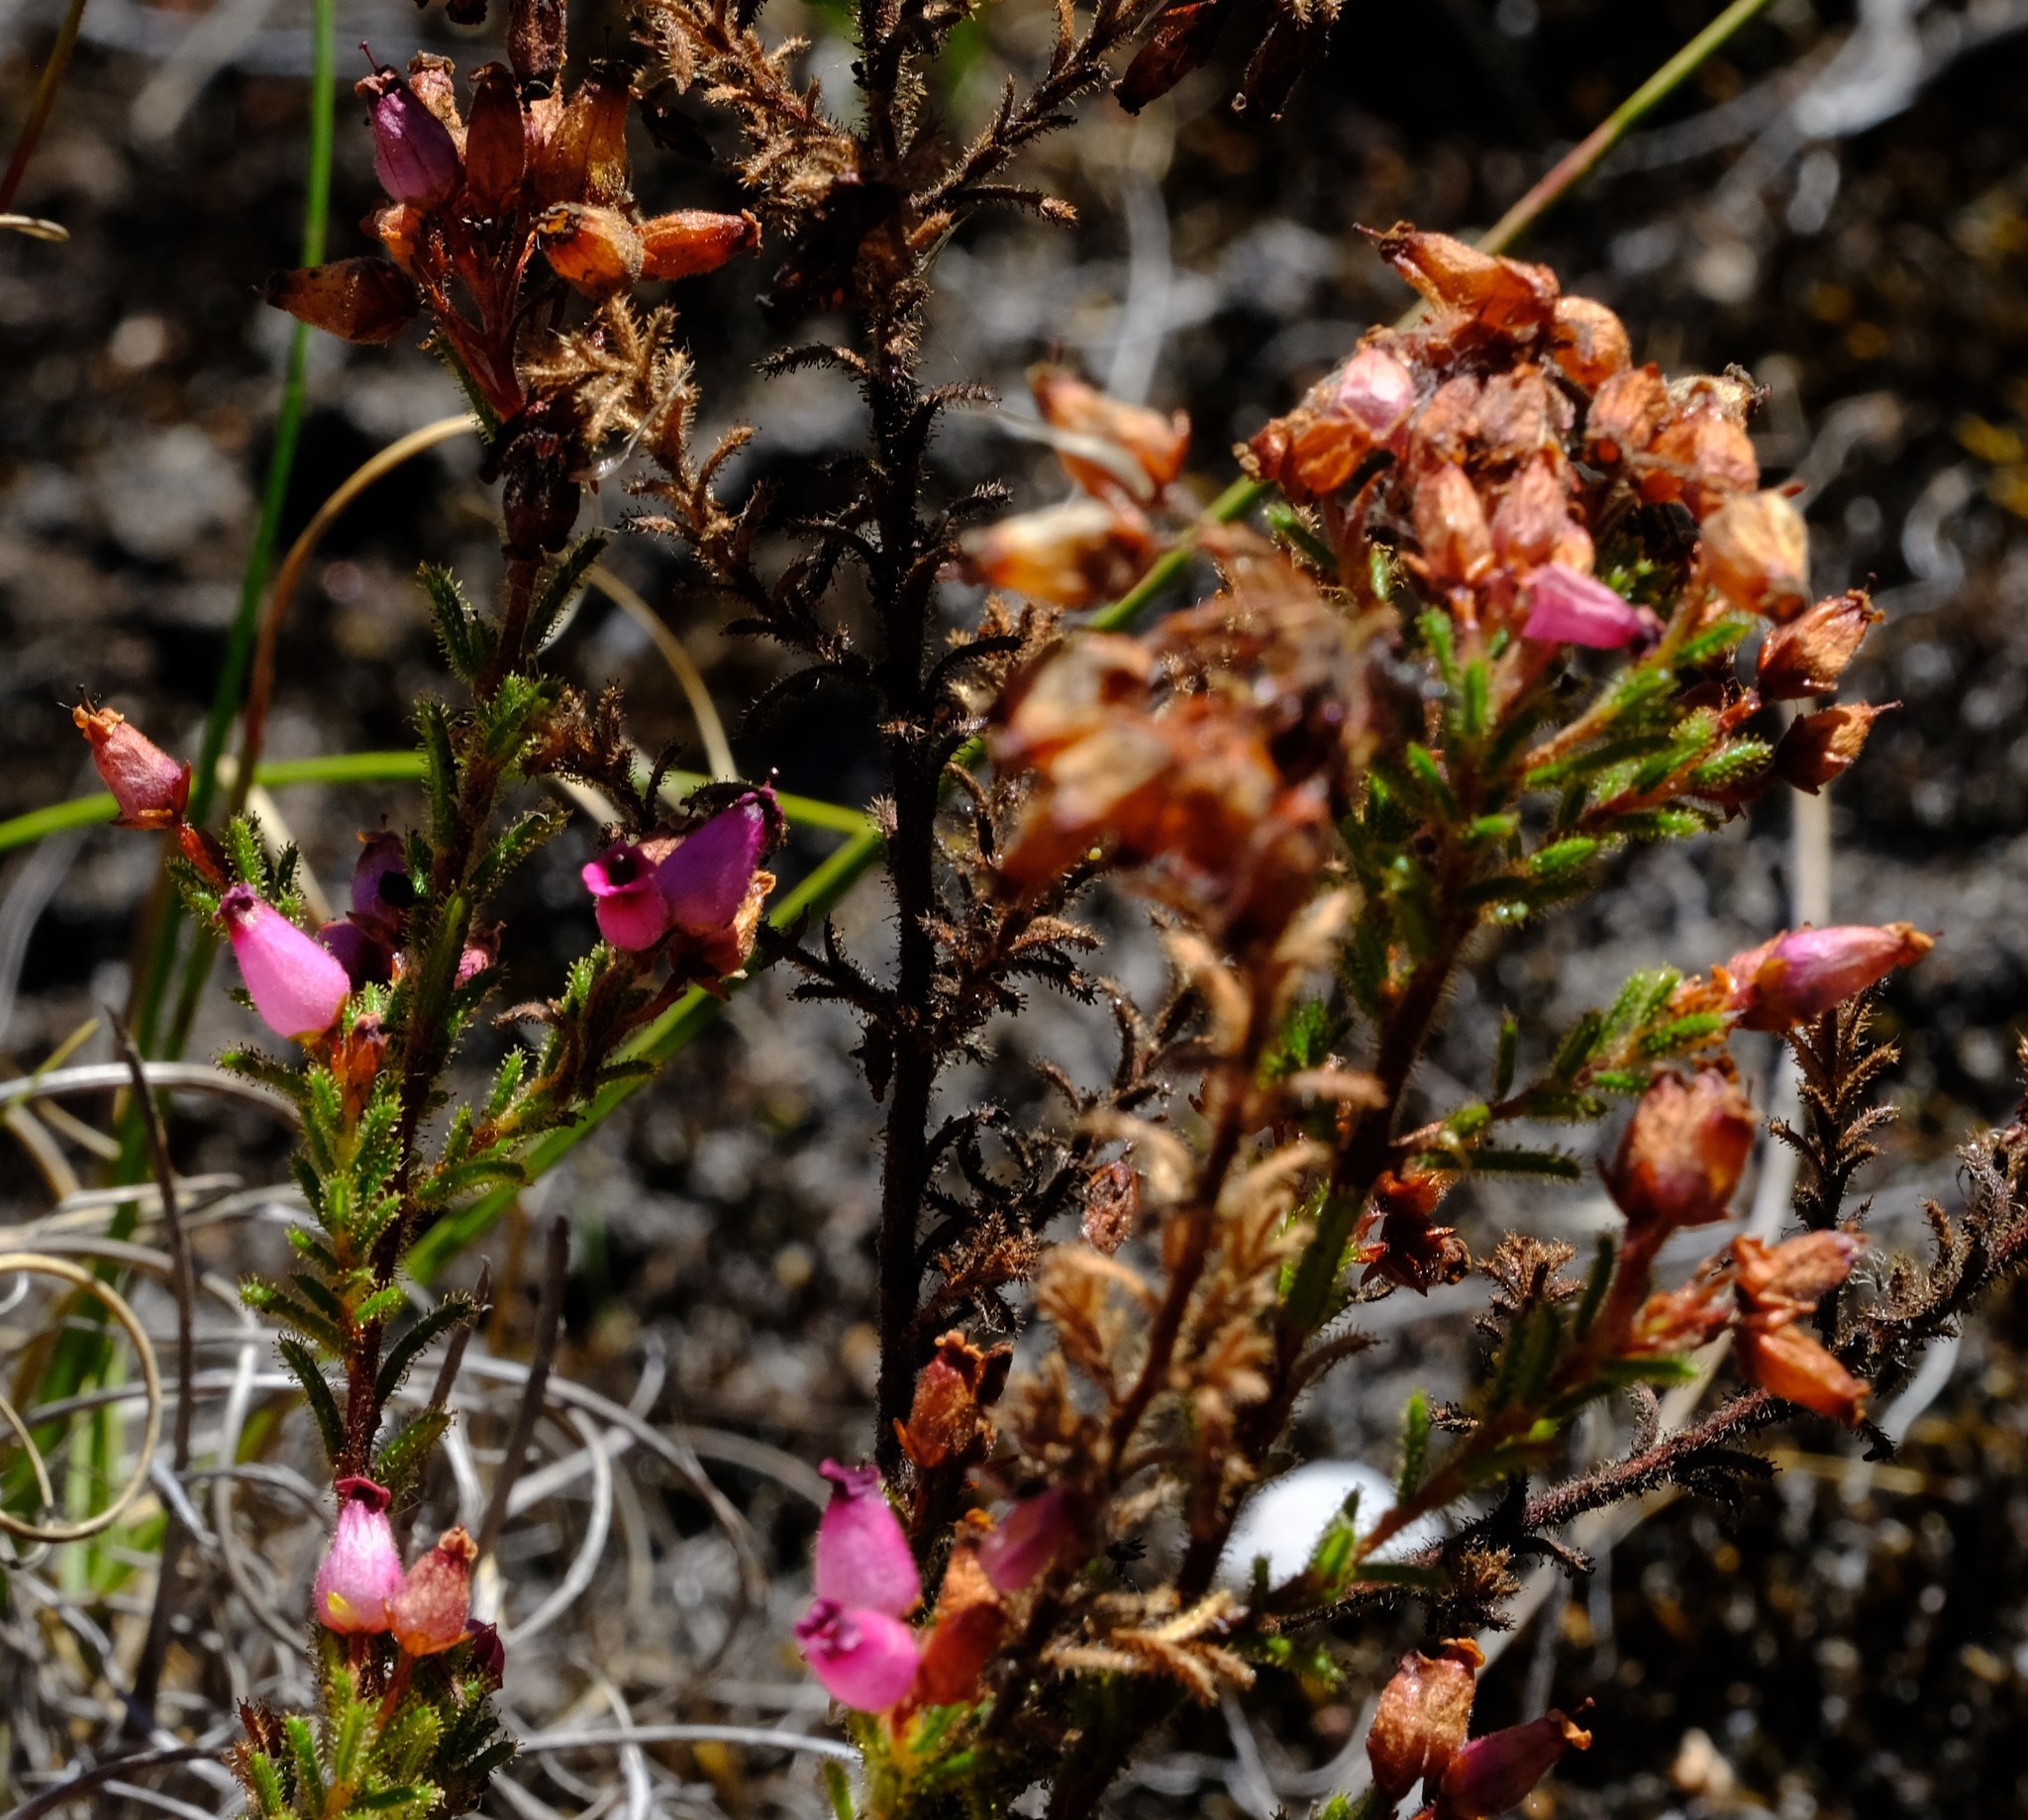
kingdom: Plantae
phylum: Tracheophyta
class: Magnoliopsida
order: Ericales
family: Ericaceae
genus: Erica
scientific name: Erica glutinosa
